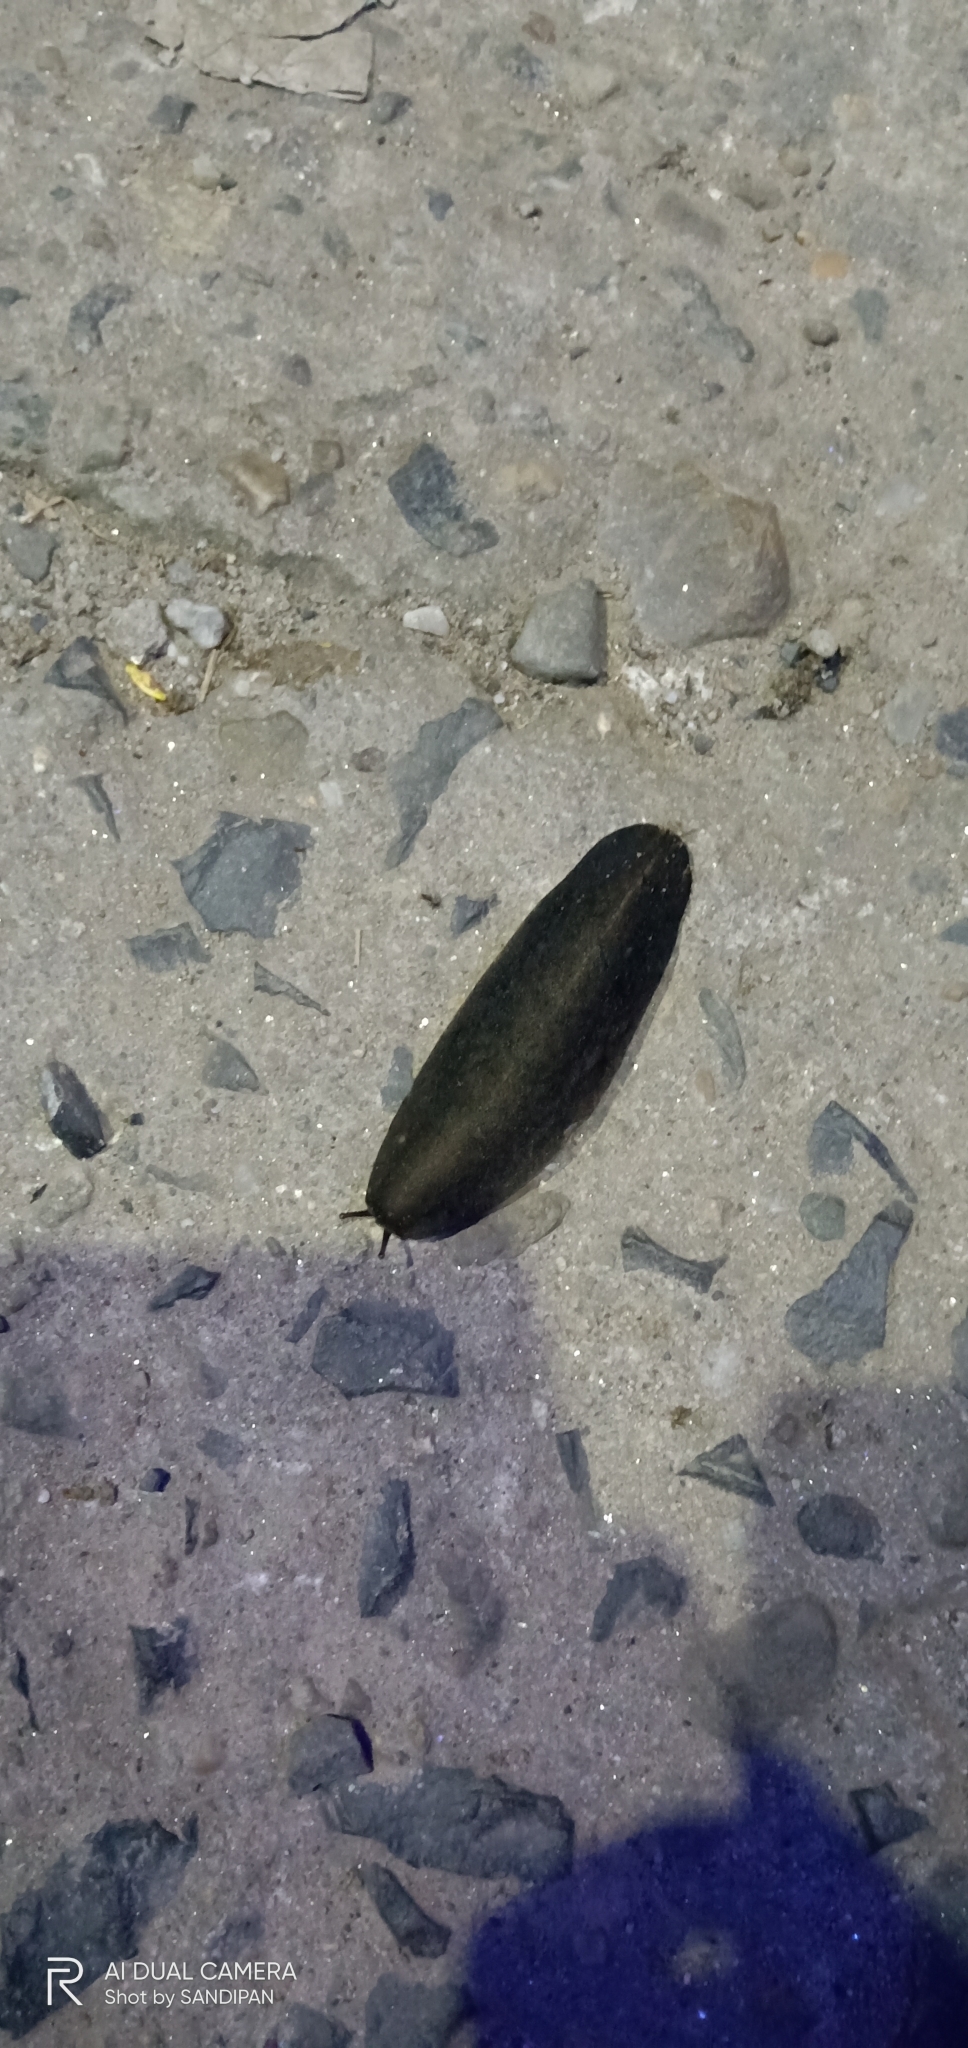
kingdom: Animalia
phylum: Mollusca
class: Gastropoda
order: Systellommatophora
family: Veronicellidae
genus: Laevicaulis
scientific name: Laevicaulis alte
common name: Tropical leatherleaf
